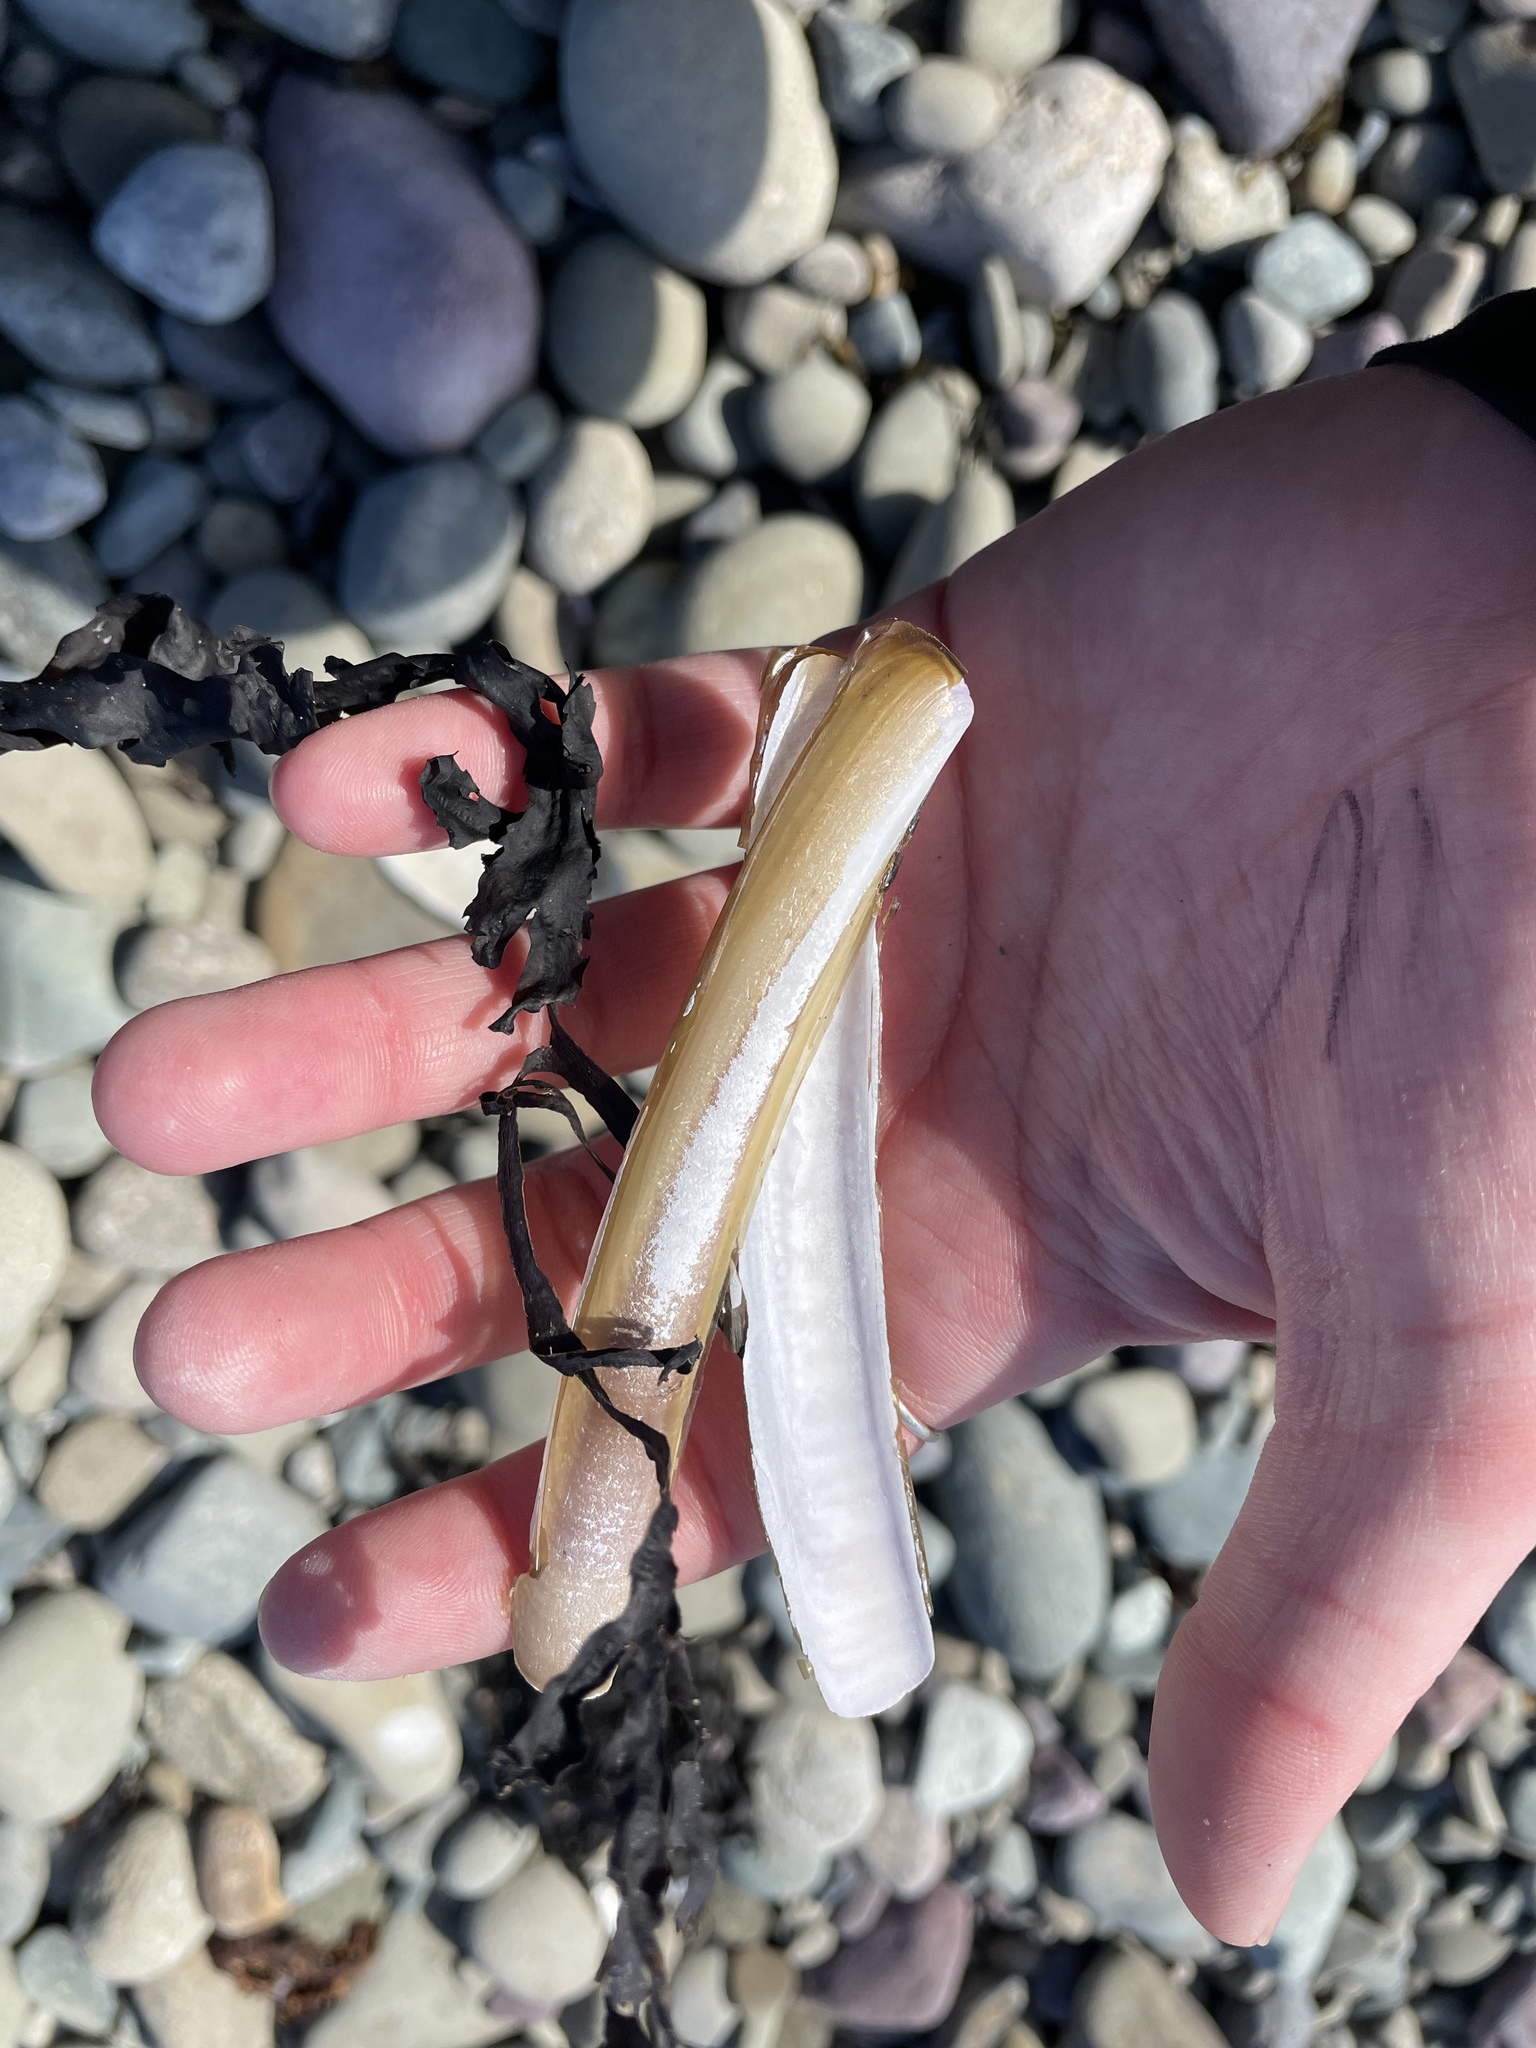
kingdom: Animalia
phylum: Mollusca
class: Bivalvia
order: Adapedonta
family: Pharidae
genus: Ensis
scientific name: Ensis leei
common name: American jack knife clam
